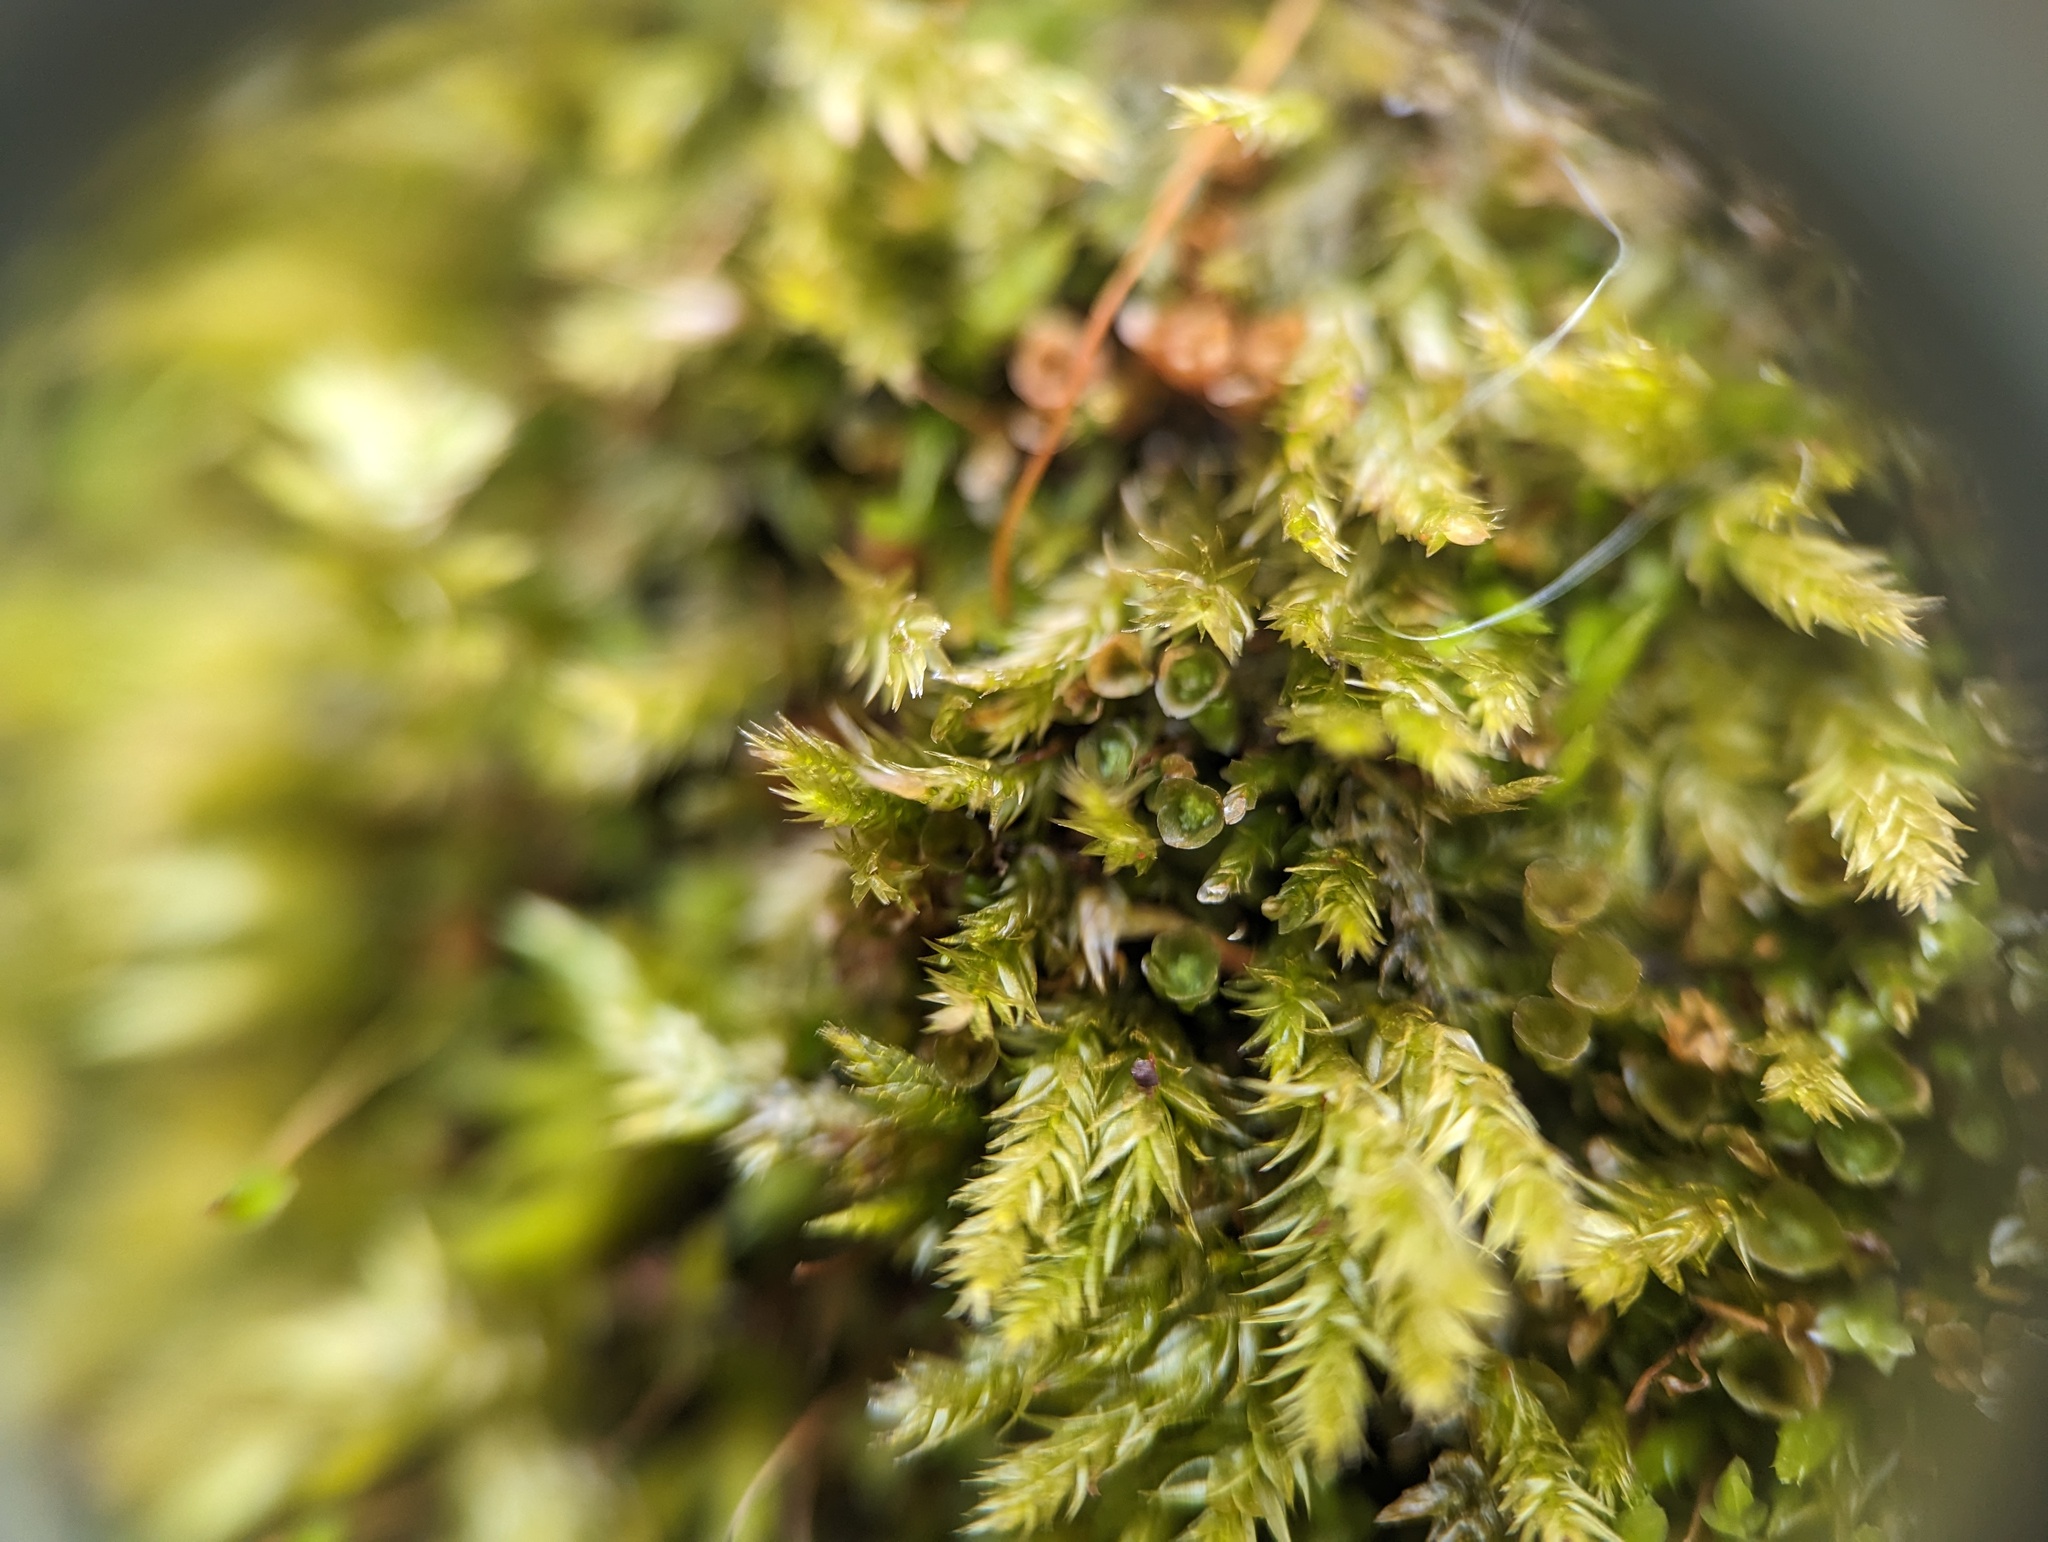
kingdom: Plantae
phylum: Bryophyta
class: Polytrichopsida
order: Tetraphidales
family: Tetraphidaceae
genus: Tetraphis
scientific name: Tetraphis pellucida
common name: Common four-toothed moss
